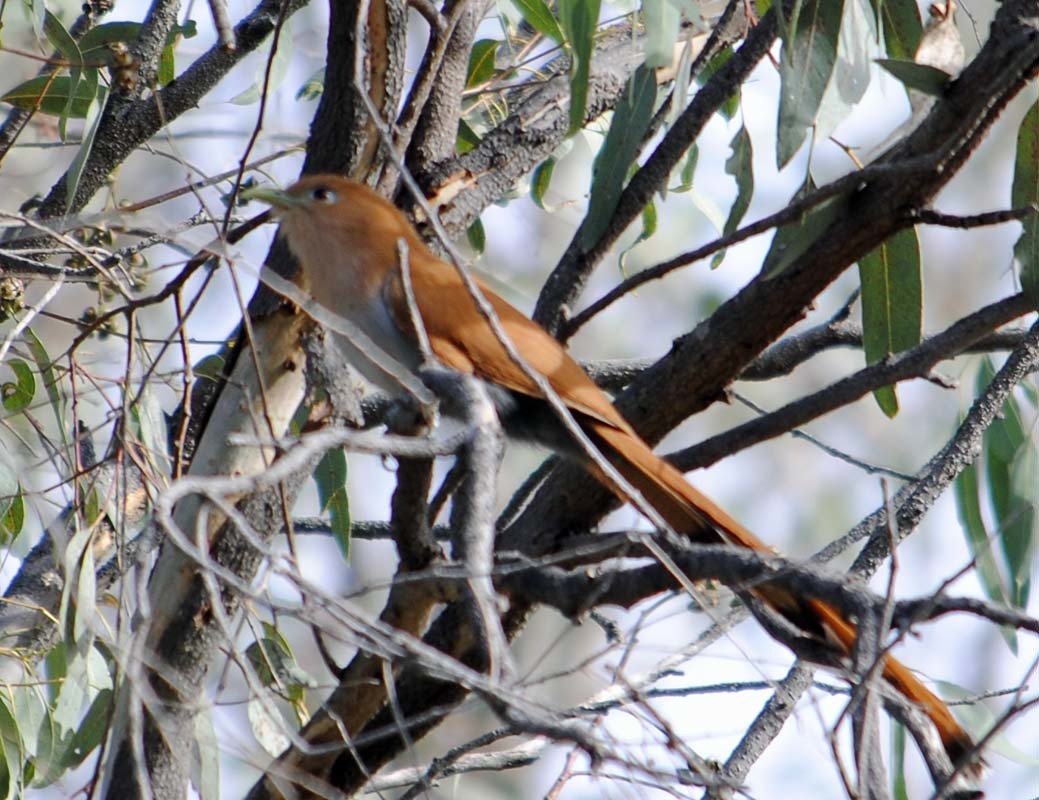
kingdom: Animalia
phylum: Chordata
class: Aves
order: Cuculiformes
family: Cuculidae
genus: Piaya
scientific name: Piaya cayana
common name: Squirrel cuckoo
